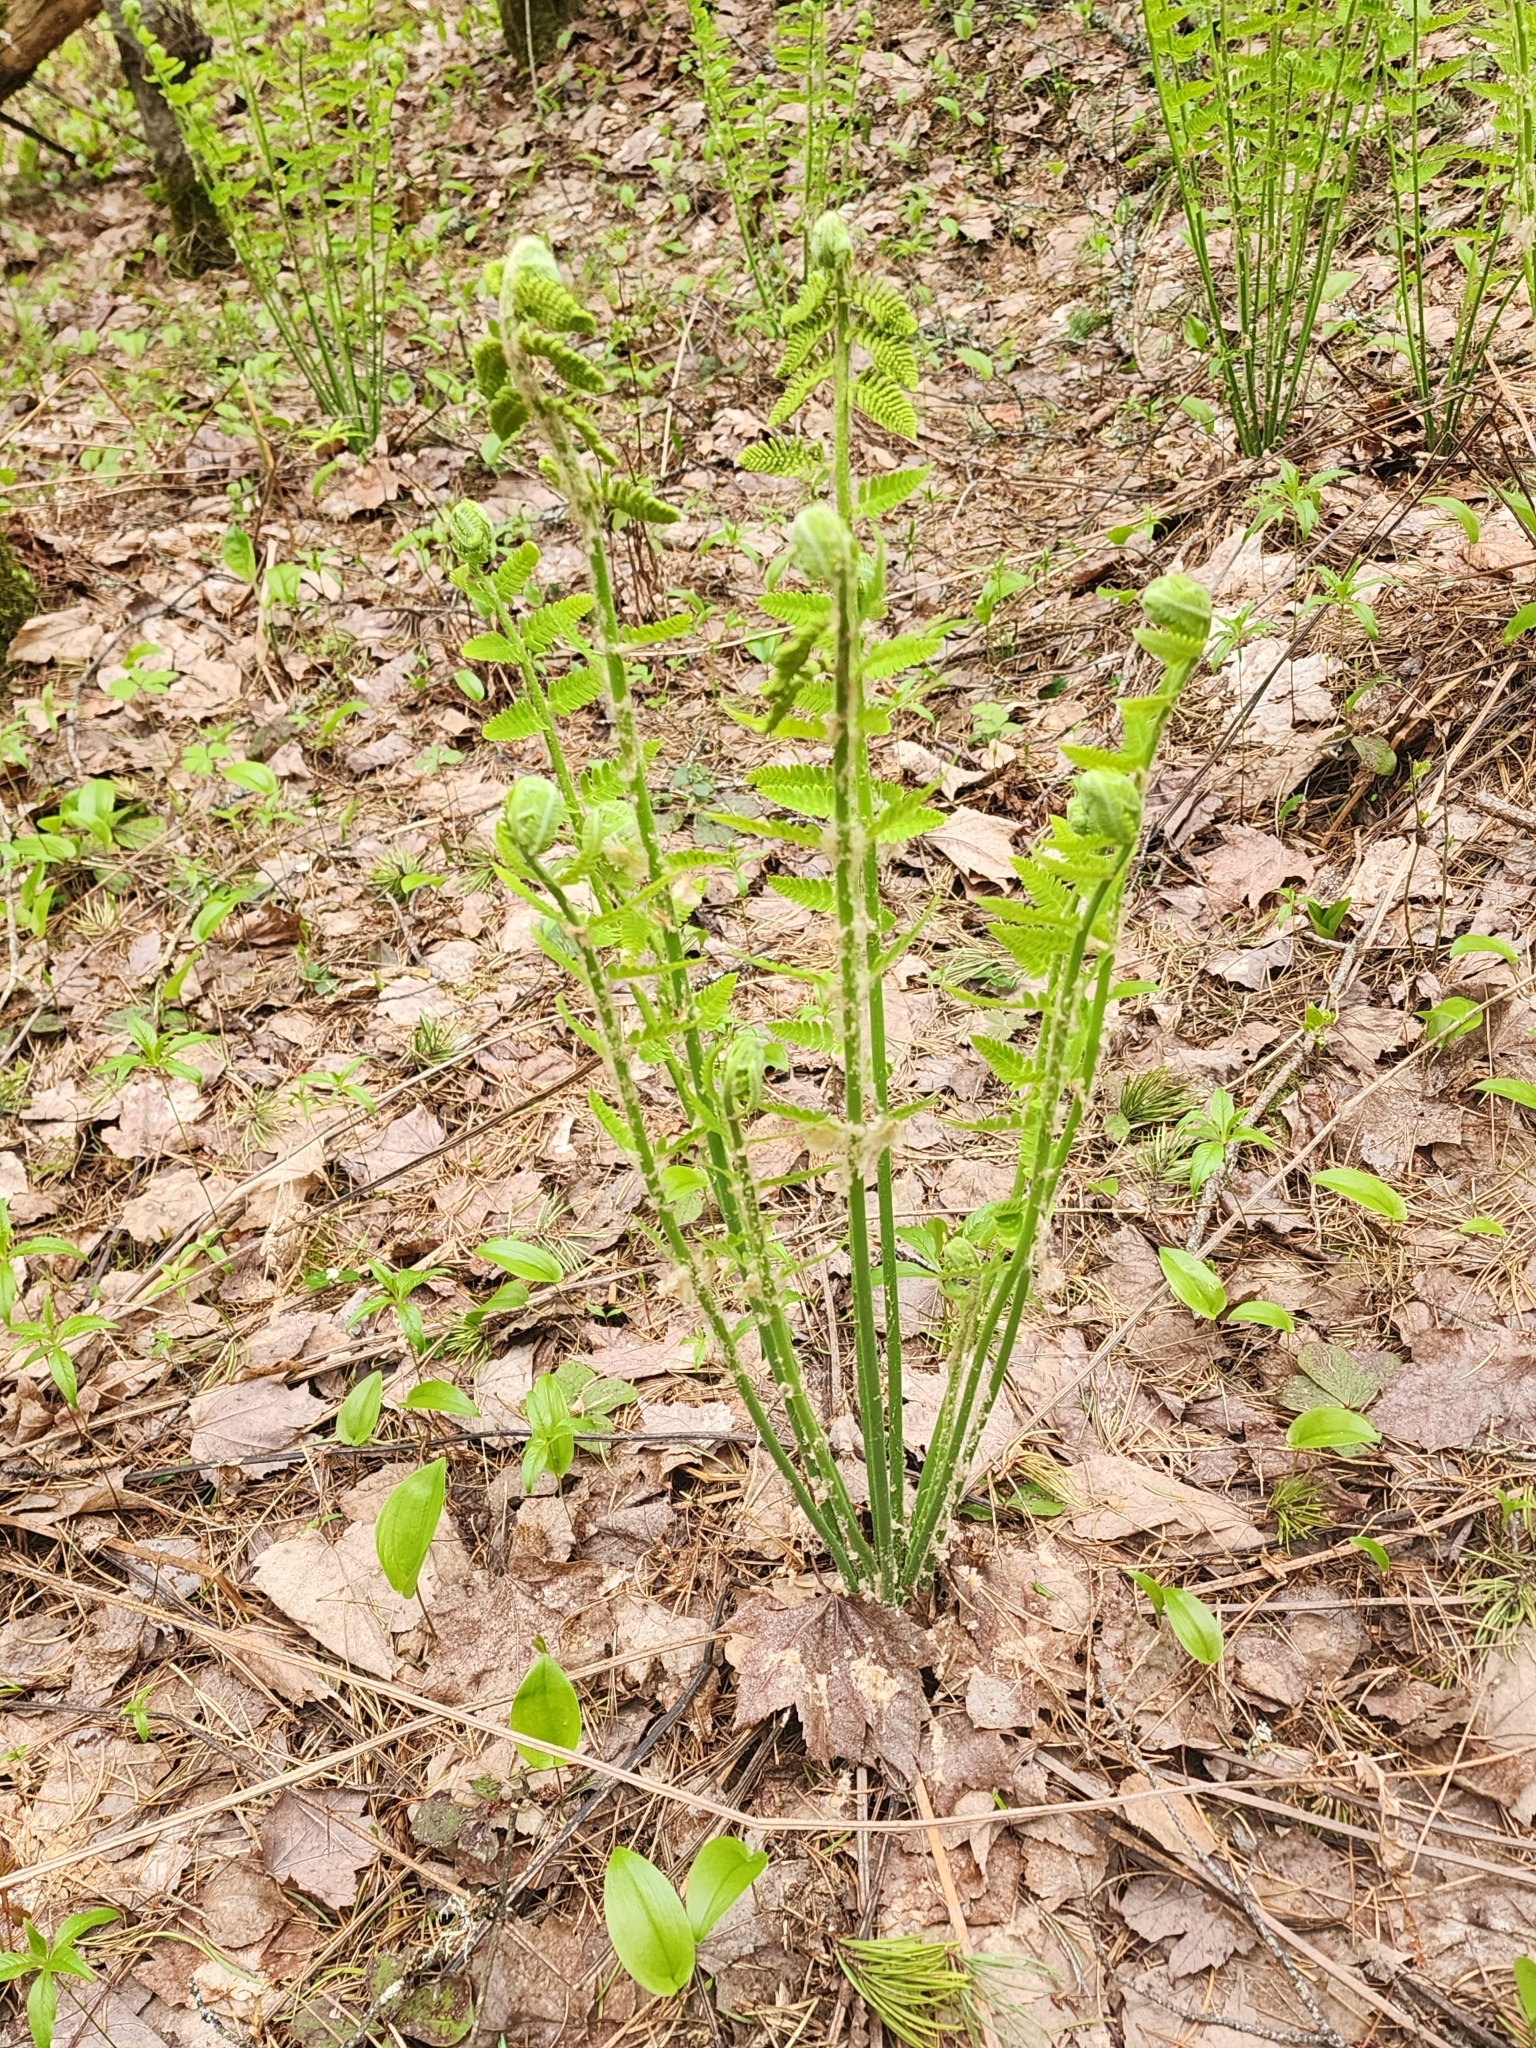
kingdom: Plantae
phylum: Tracheophyta
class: Polypodiopsida
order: Osmundales
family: Osmundaceae
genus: Claytosmunda
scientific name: Claytosmunda claytoniana
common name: Clayton's fern
